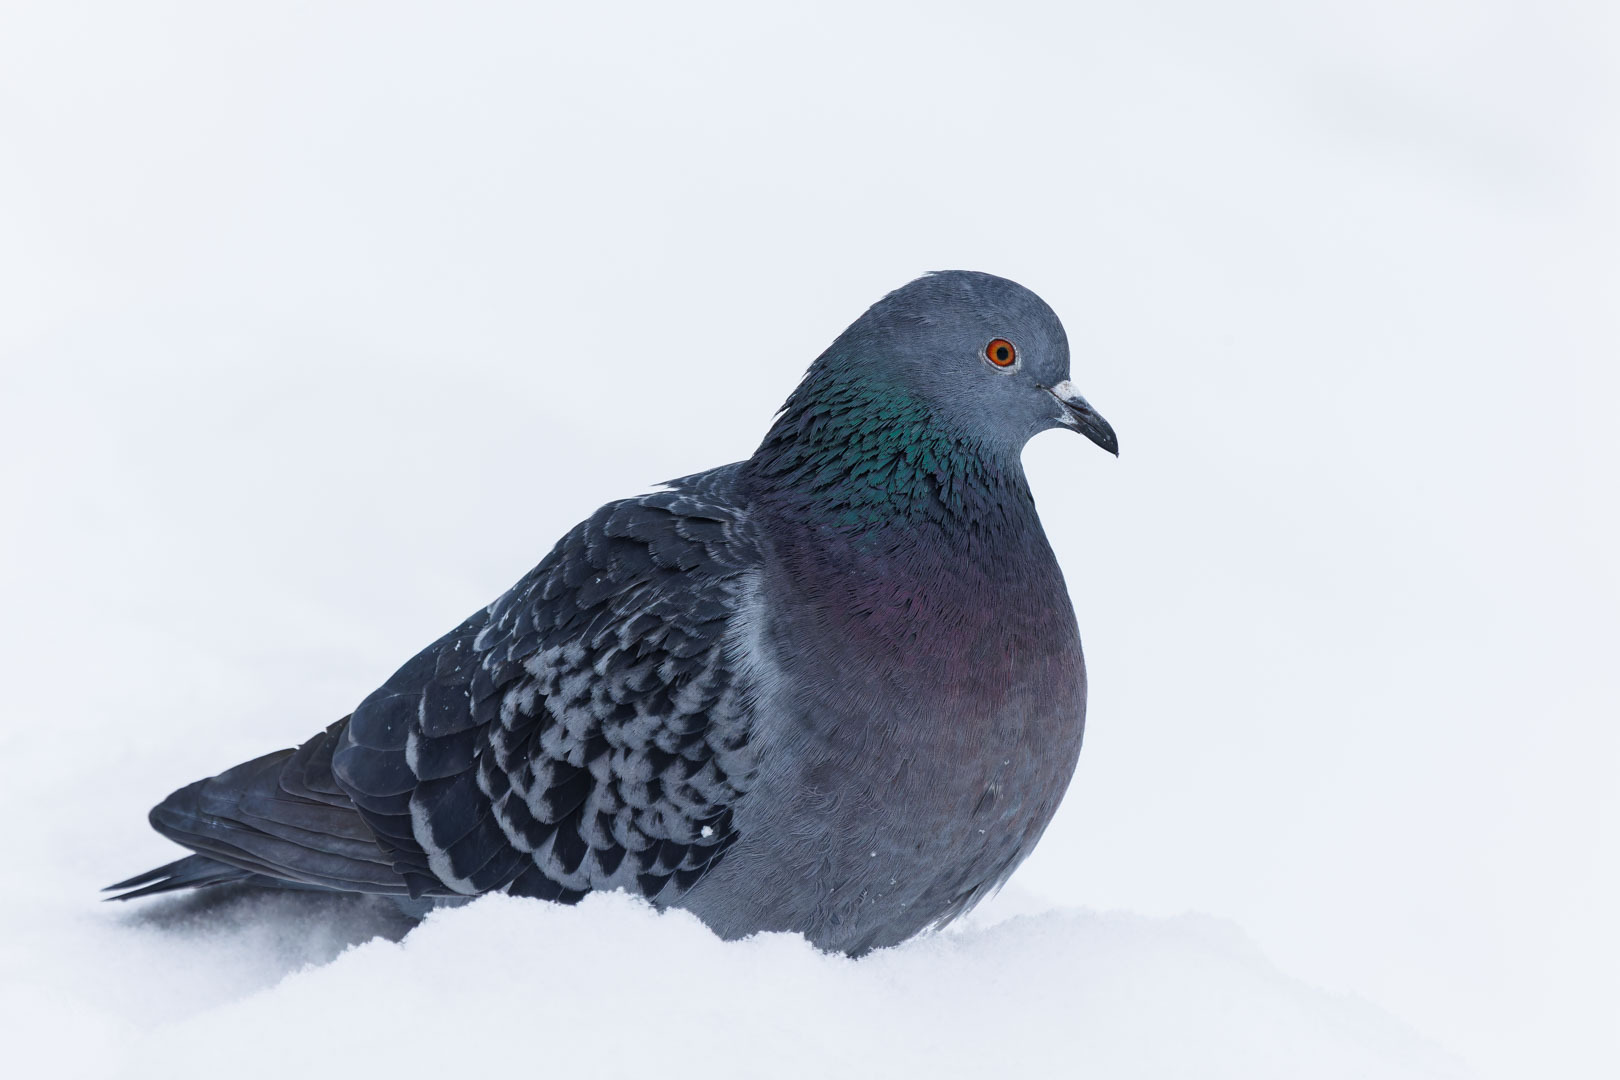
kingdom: Animalia
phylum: Chordata
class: Aves
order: Columbiformes
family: Columbidae
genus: Columba
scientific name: Columba livia
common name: Rock pigeon
